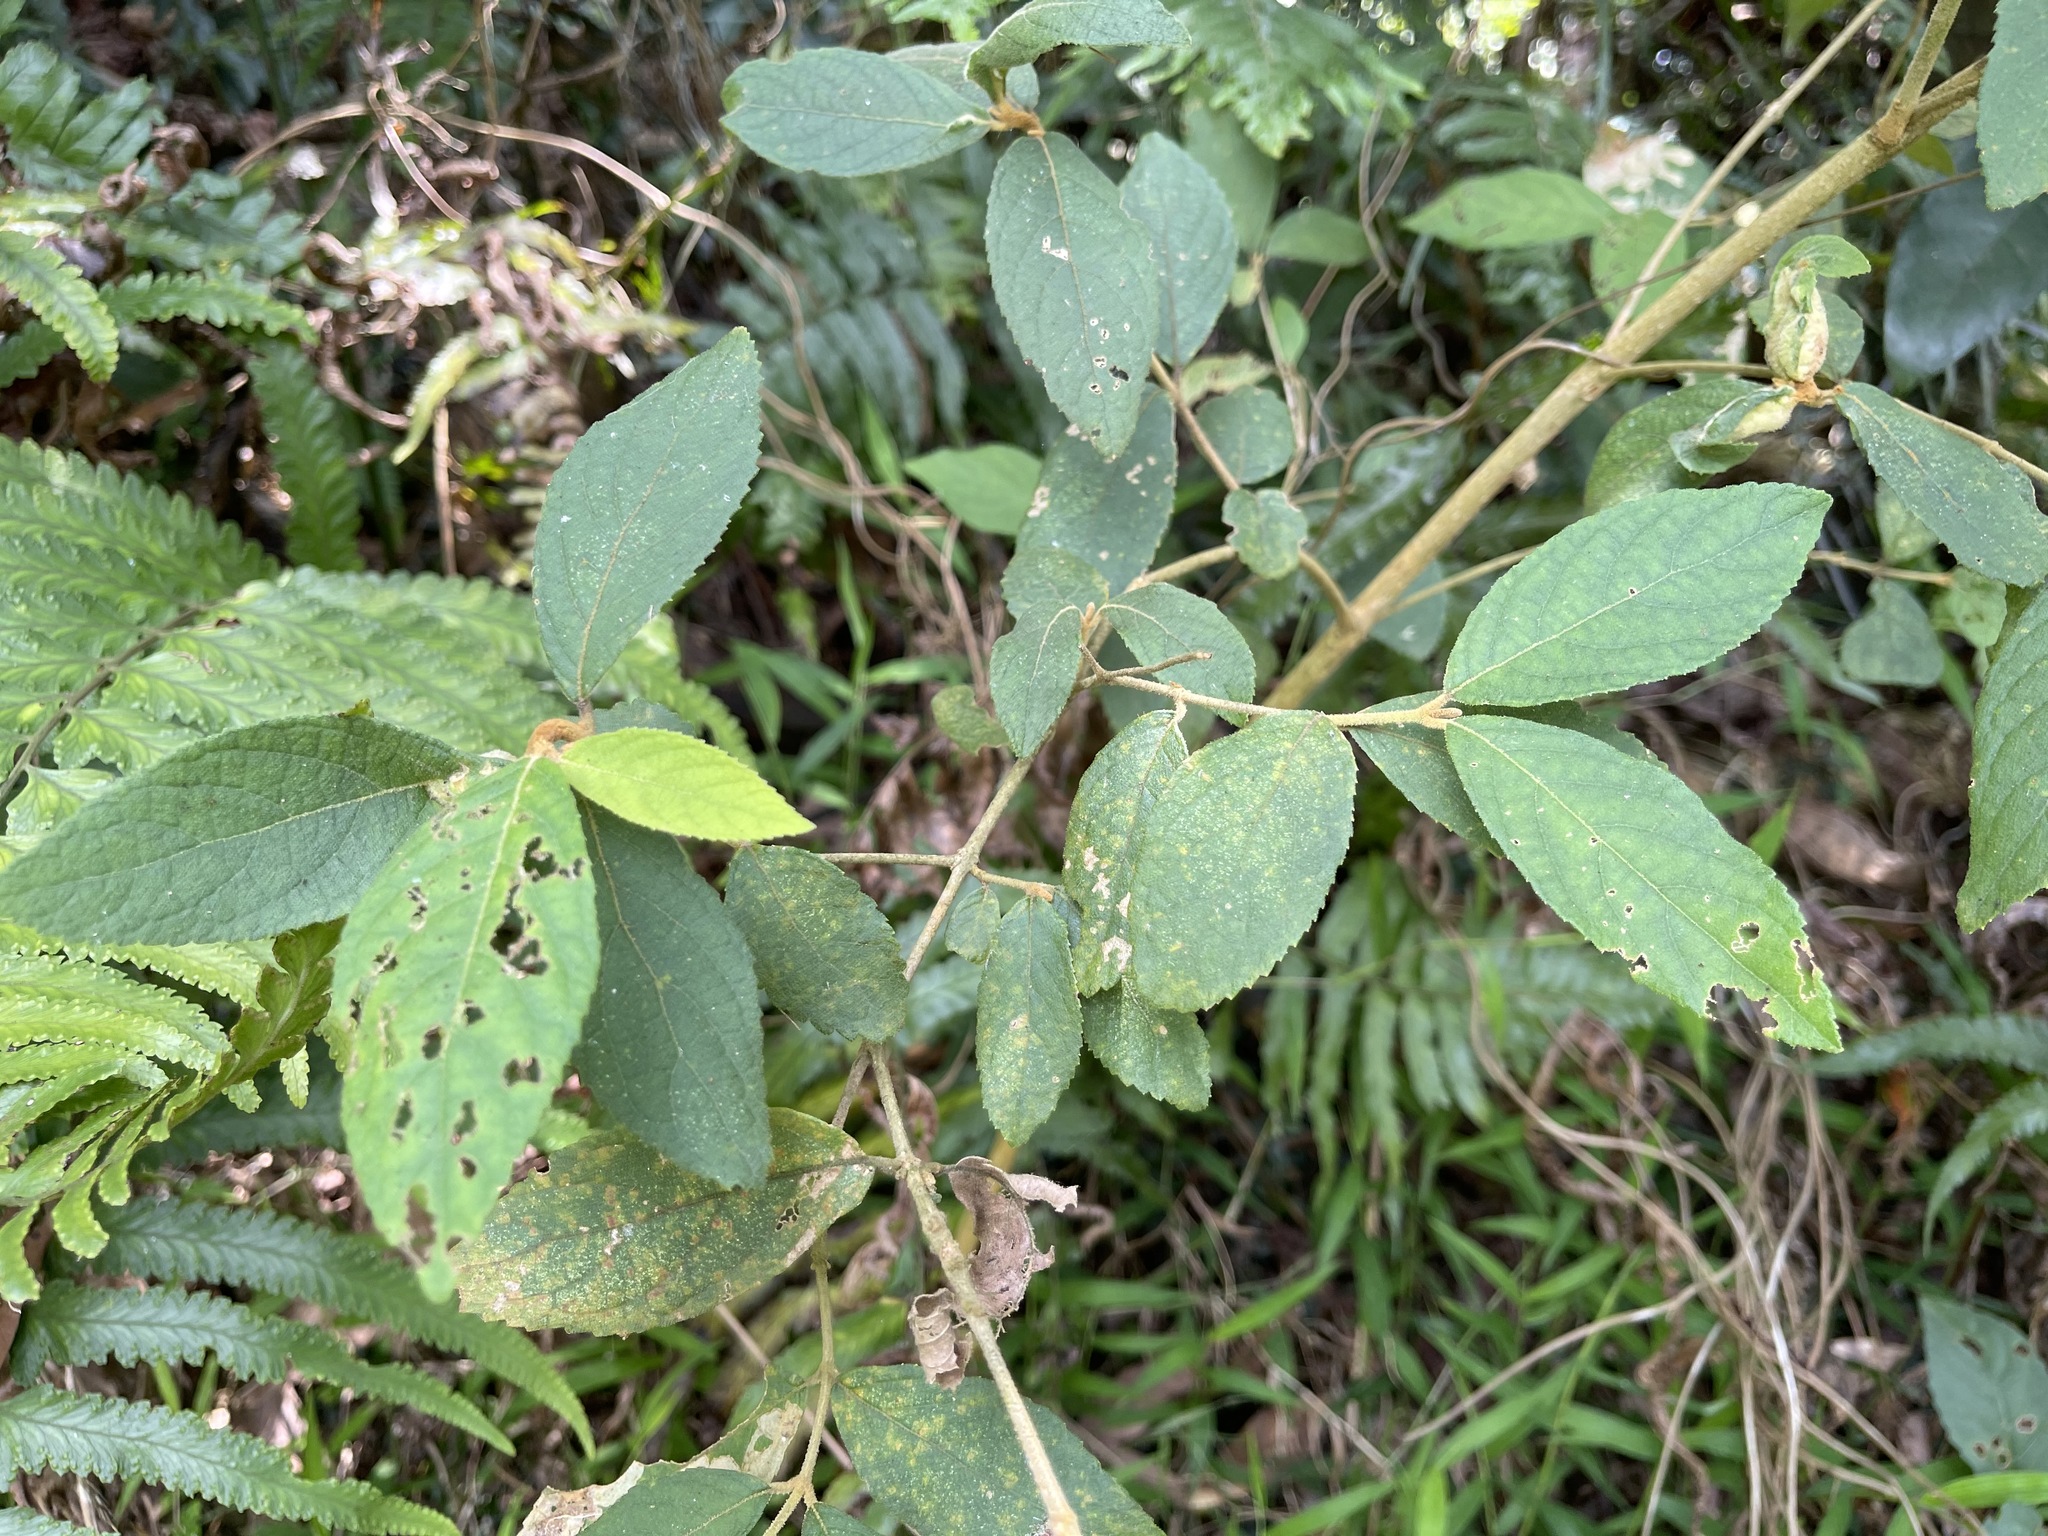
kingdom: Plantae
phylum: Tracheophyta
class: Magnoliopsida
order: Lamiales
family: Lamiaceae
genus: Callicarpa
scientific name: Callicarpa pedunculata
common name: Velvetleaf
